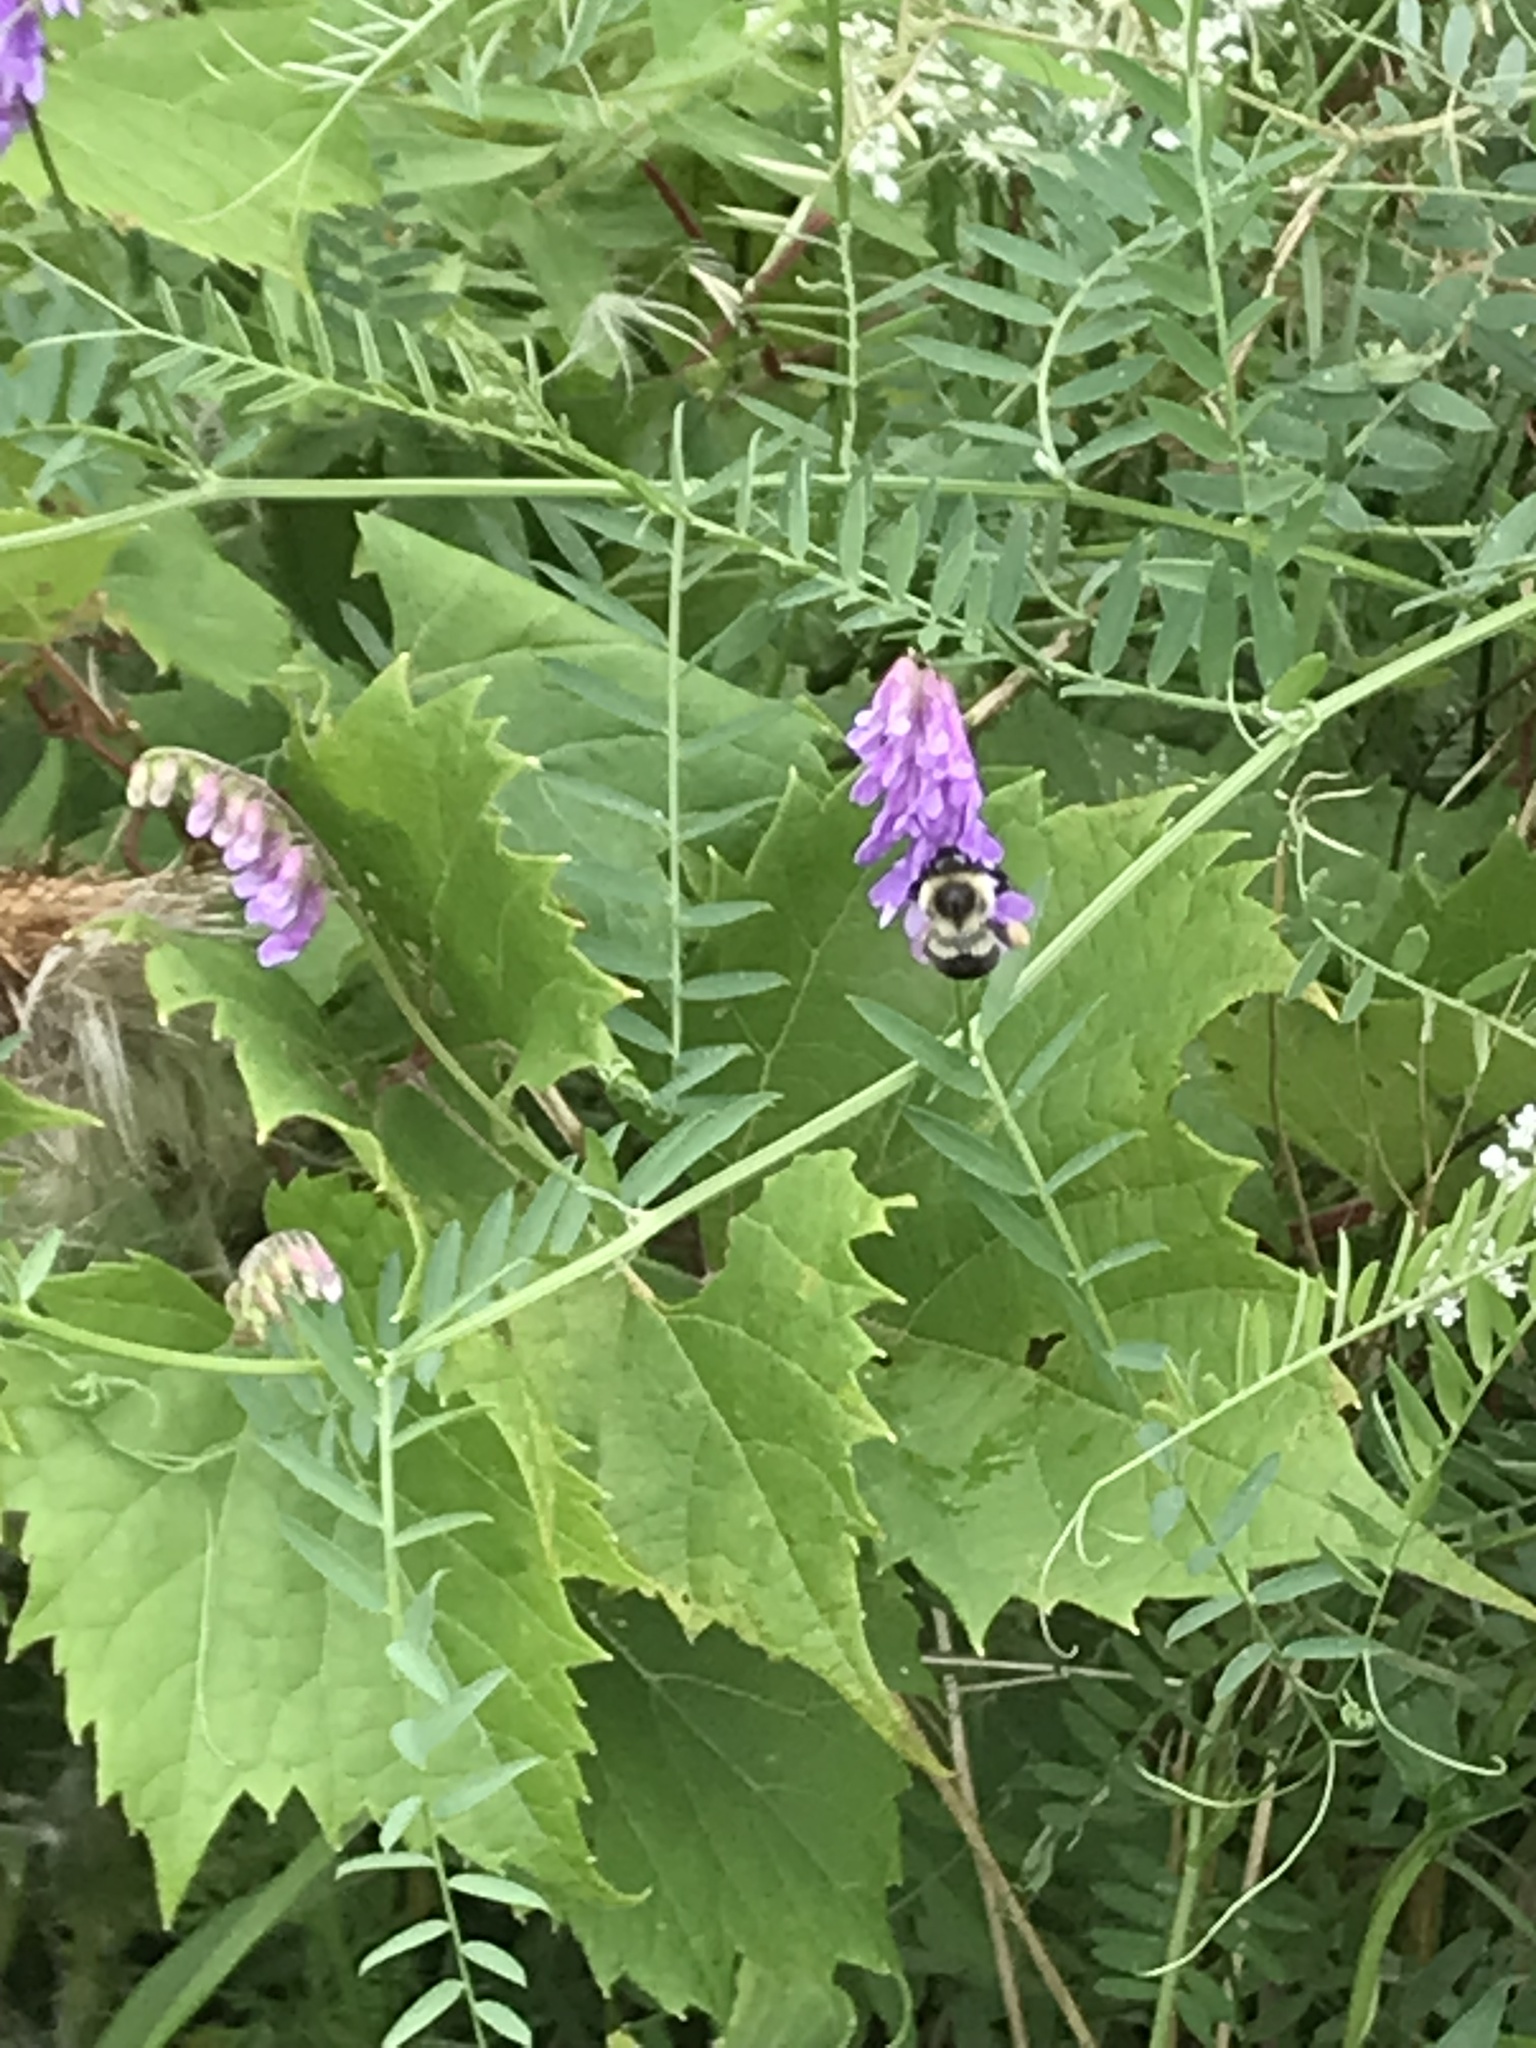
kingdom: Animalia
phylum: Arthropoda
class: Insecta
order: Hymenoptera
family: Apidae
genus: Bombus
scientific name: Bombus impatiens
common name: Common eastern bumble bee
